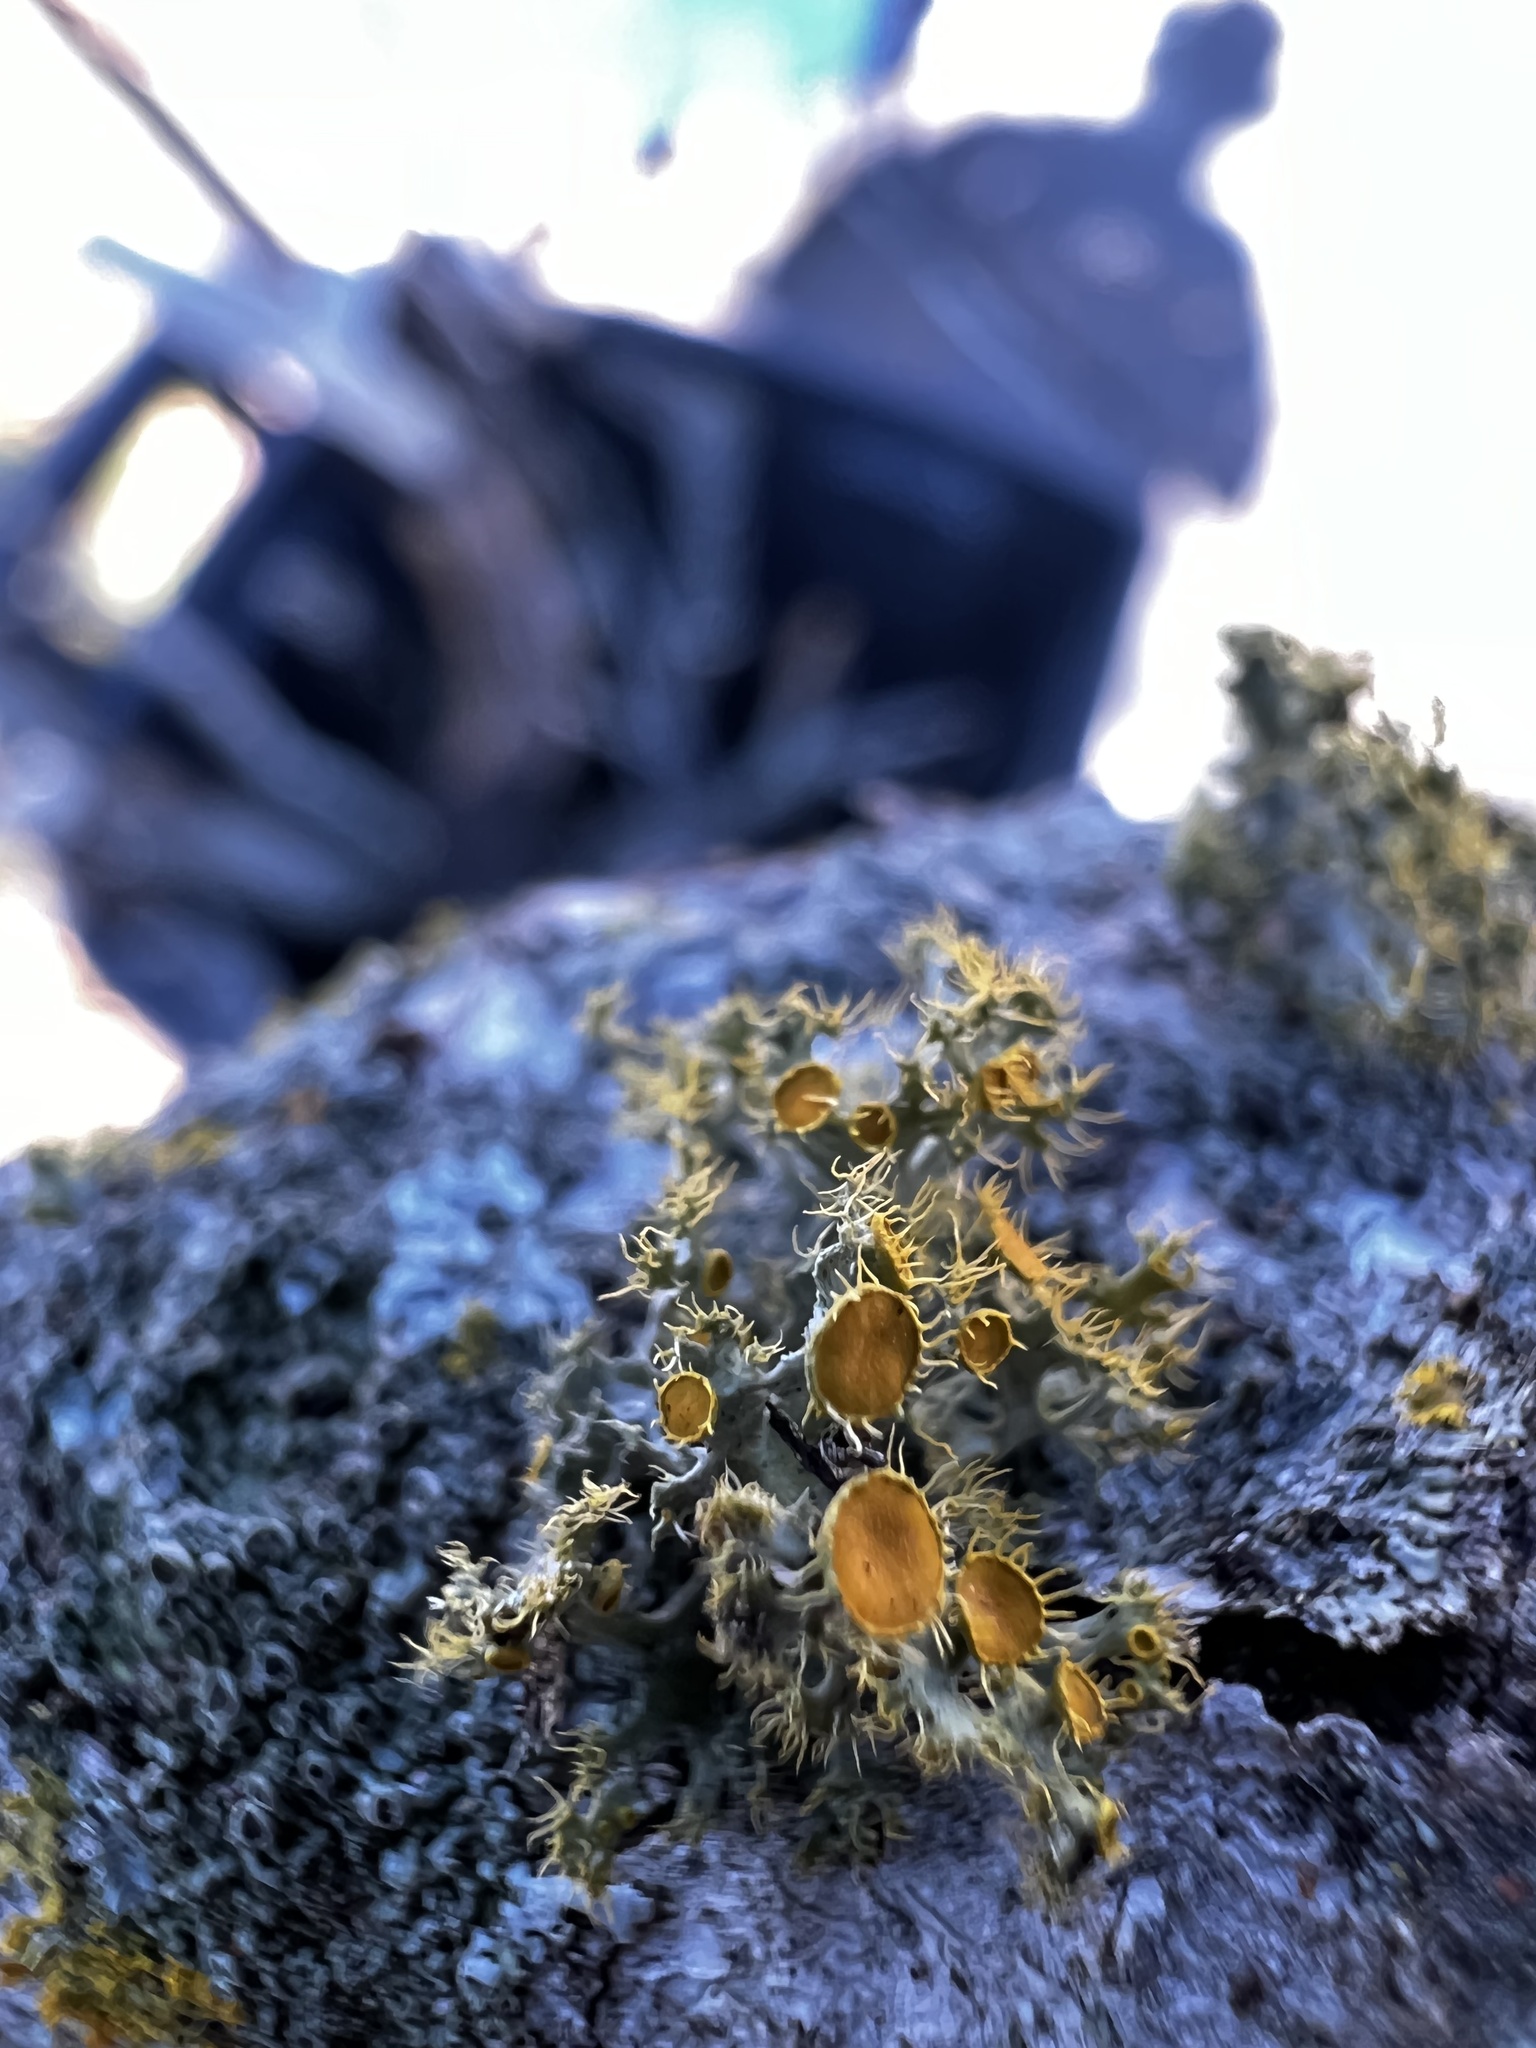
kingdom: Fungi
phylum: Ascomycota
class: Lecanoromycetes
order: Teloschistales
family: Teloschistaceae
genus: Niorma
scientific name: Niorma chrysophthalma
